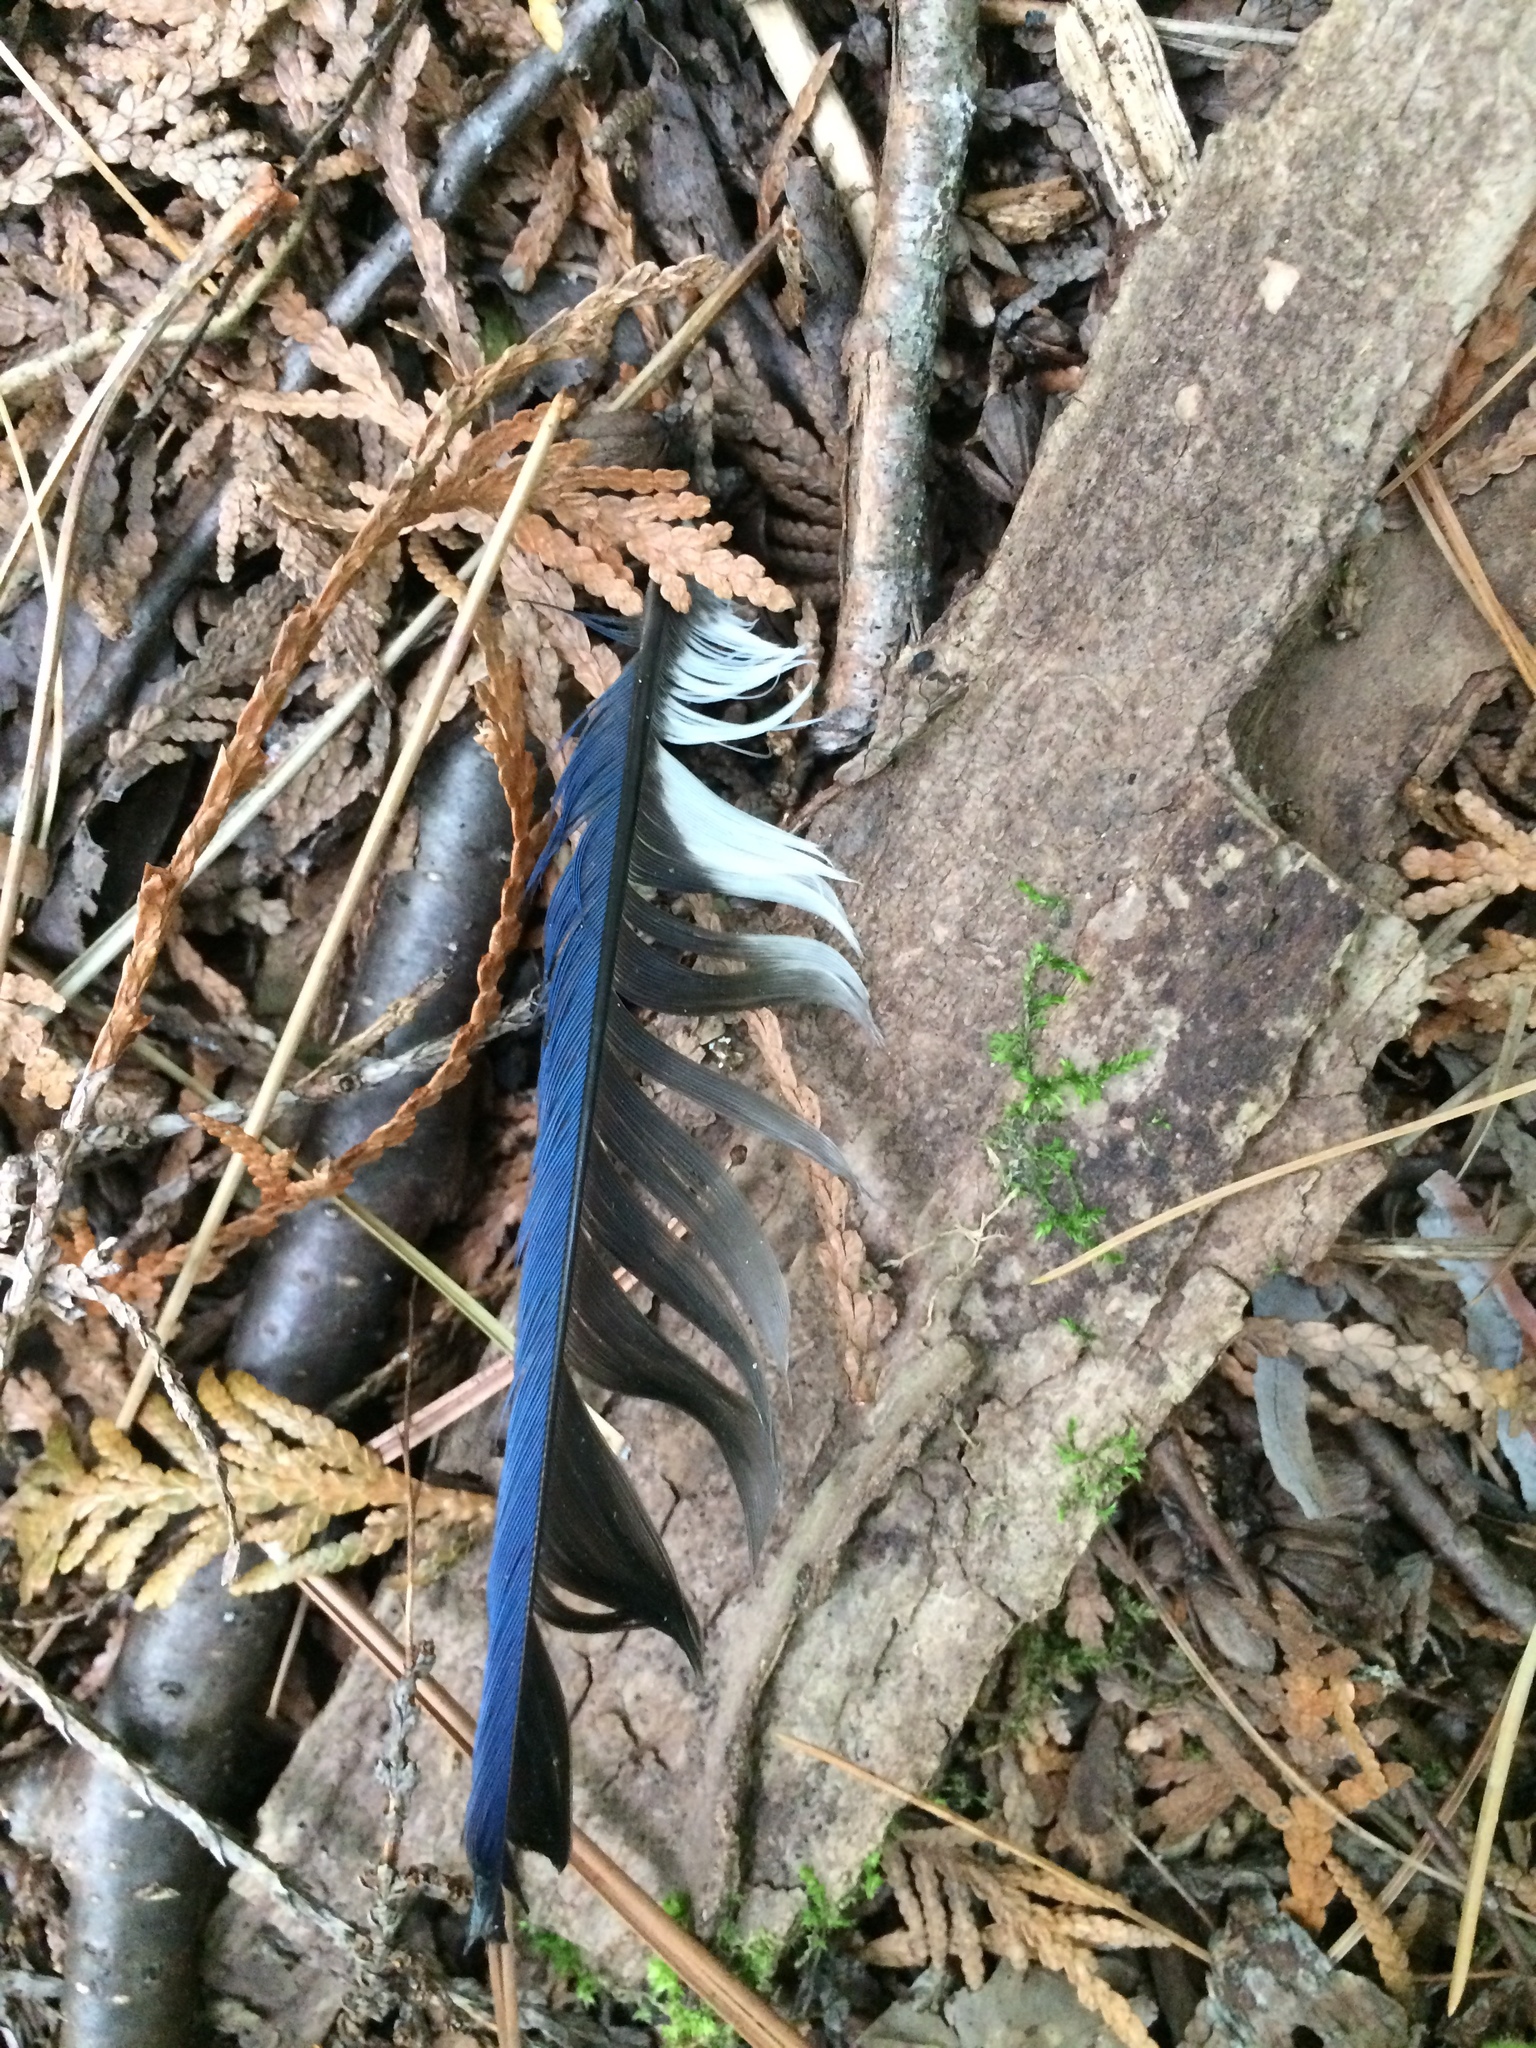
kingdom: Animalia
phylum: Chordata
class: Aves
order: Passeriformes
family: Corvidae
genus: Cyanocitta
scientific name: Cyanocitta cristata
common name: Blue jay
